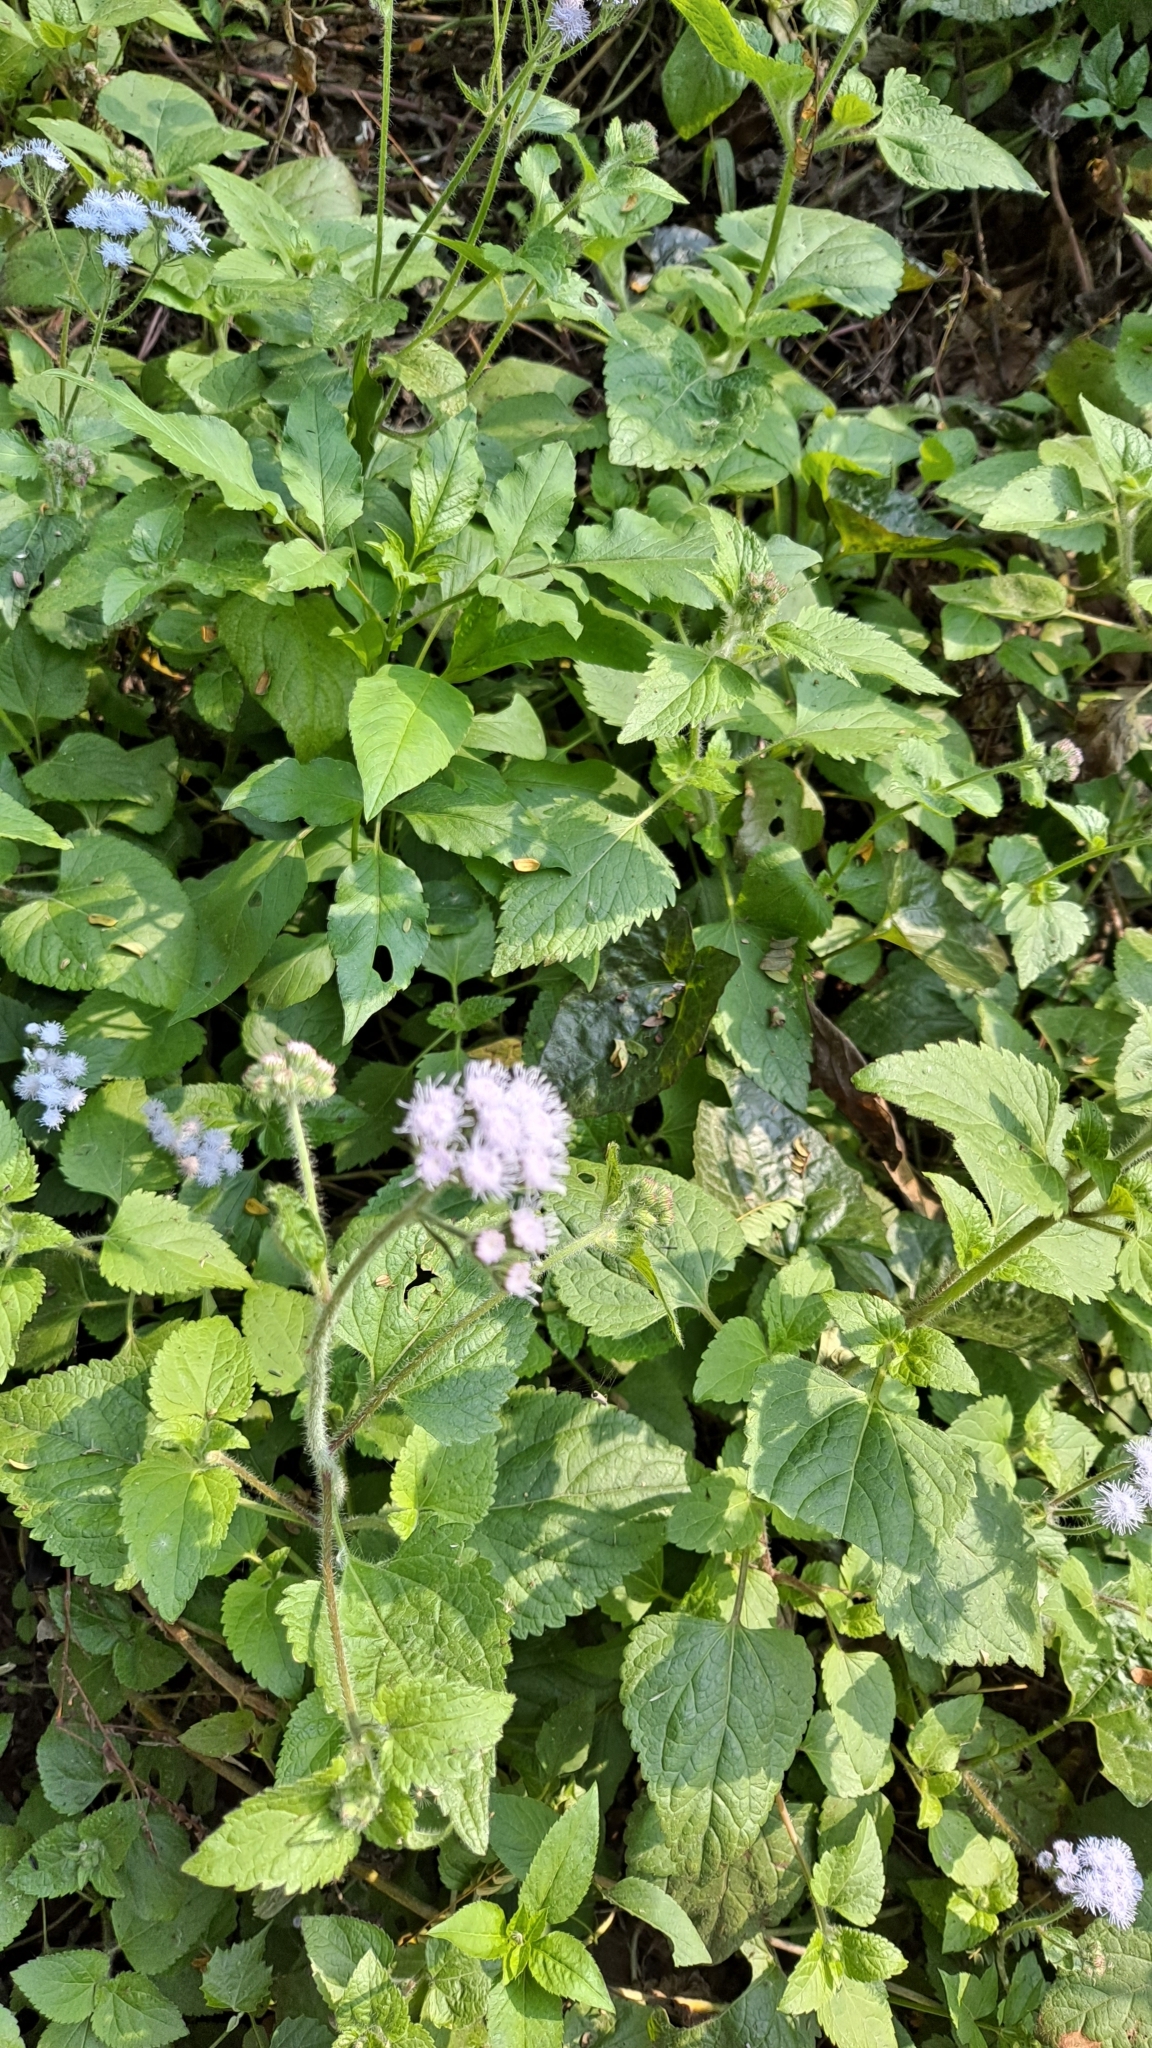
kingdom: Plantae
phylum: Tracheophyta
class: Magnoliopsida
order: Asterales
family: Asteraceae
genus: Ageratum
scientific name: Ageratum houstonianum
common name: Bluemink
